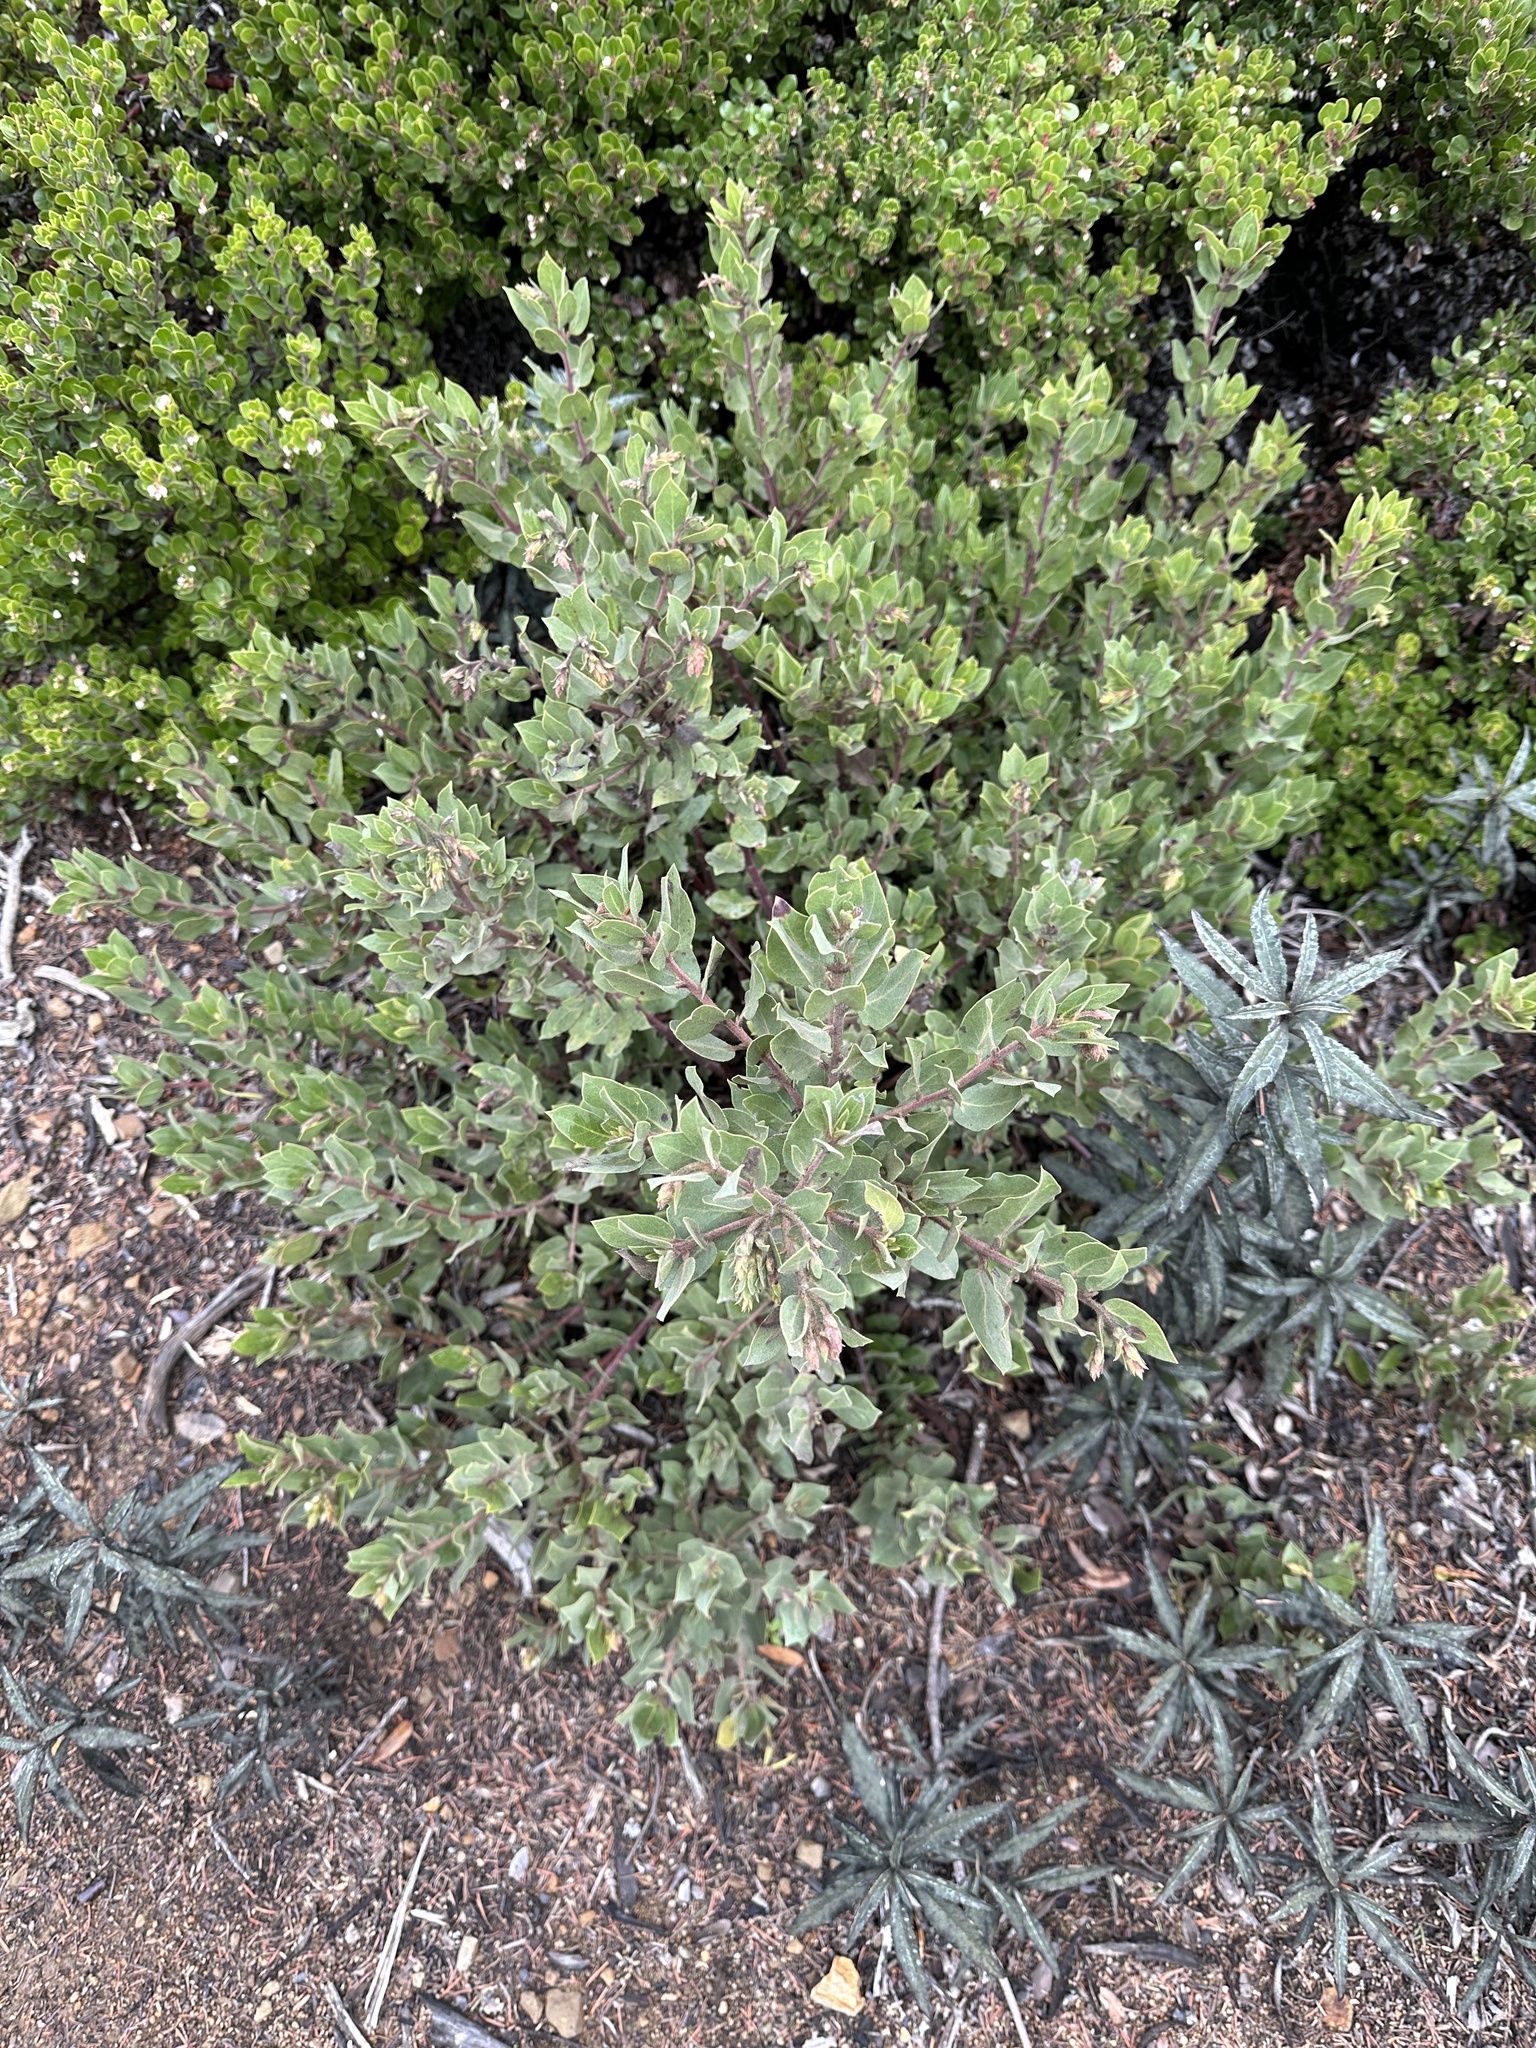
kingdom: Plantae
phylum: Tracheophyta
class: Magnoliopsida
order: Ericales
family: Ericaceae
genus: Arctostaphylos
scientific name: Arctostaphylos glandulosa
